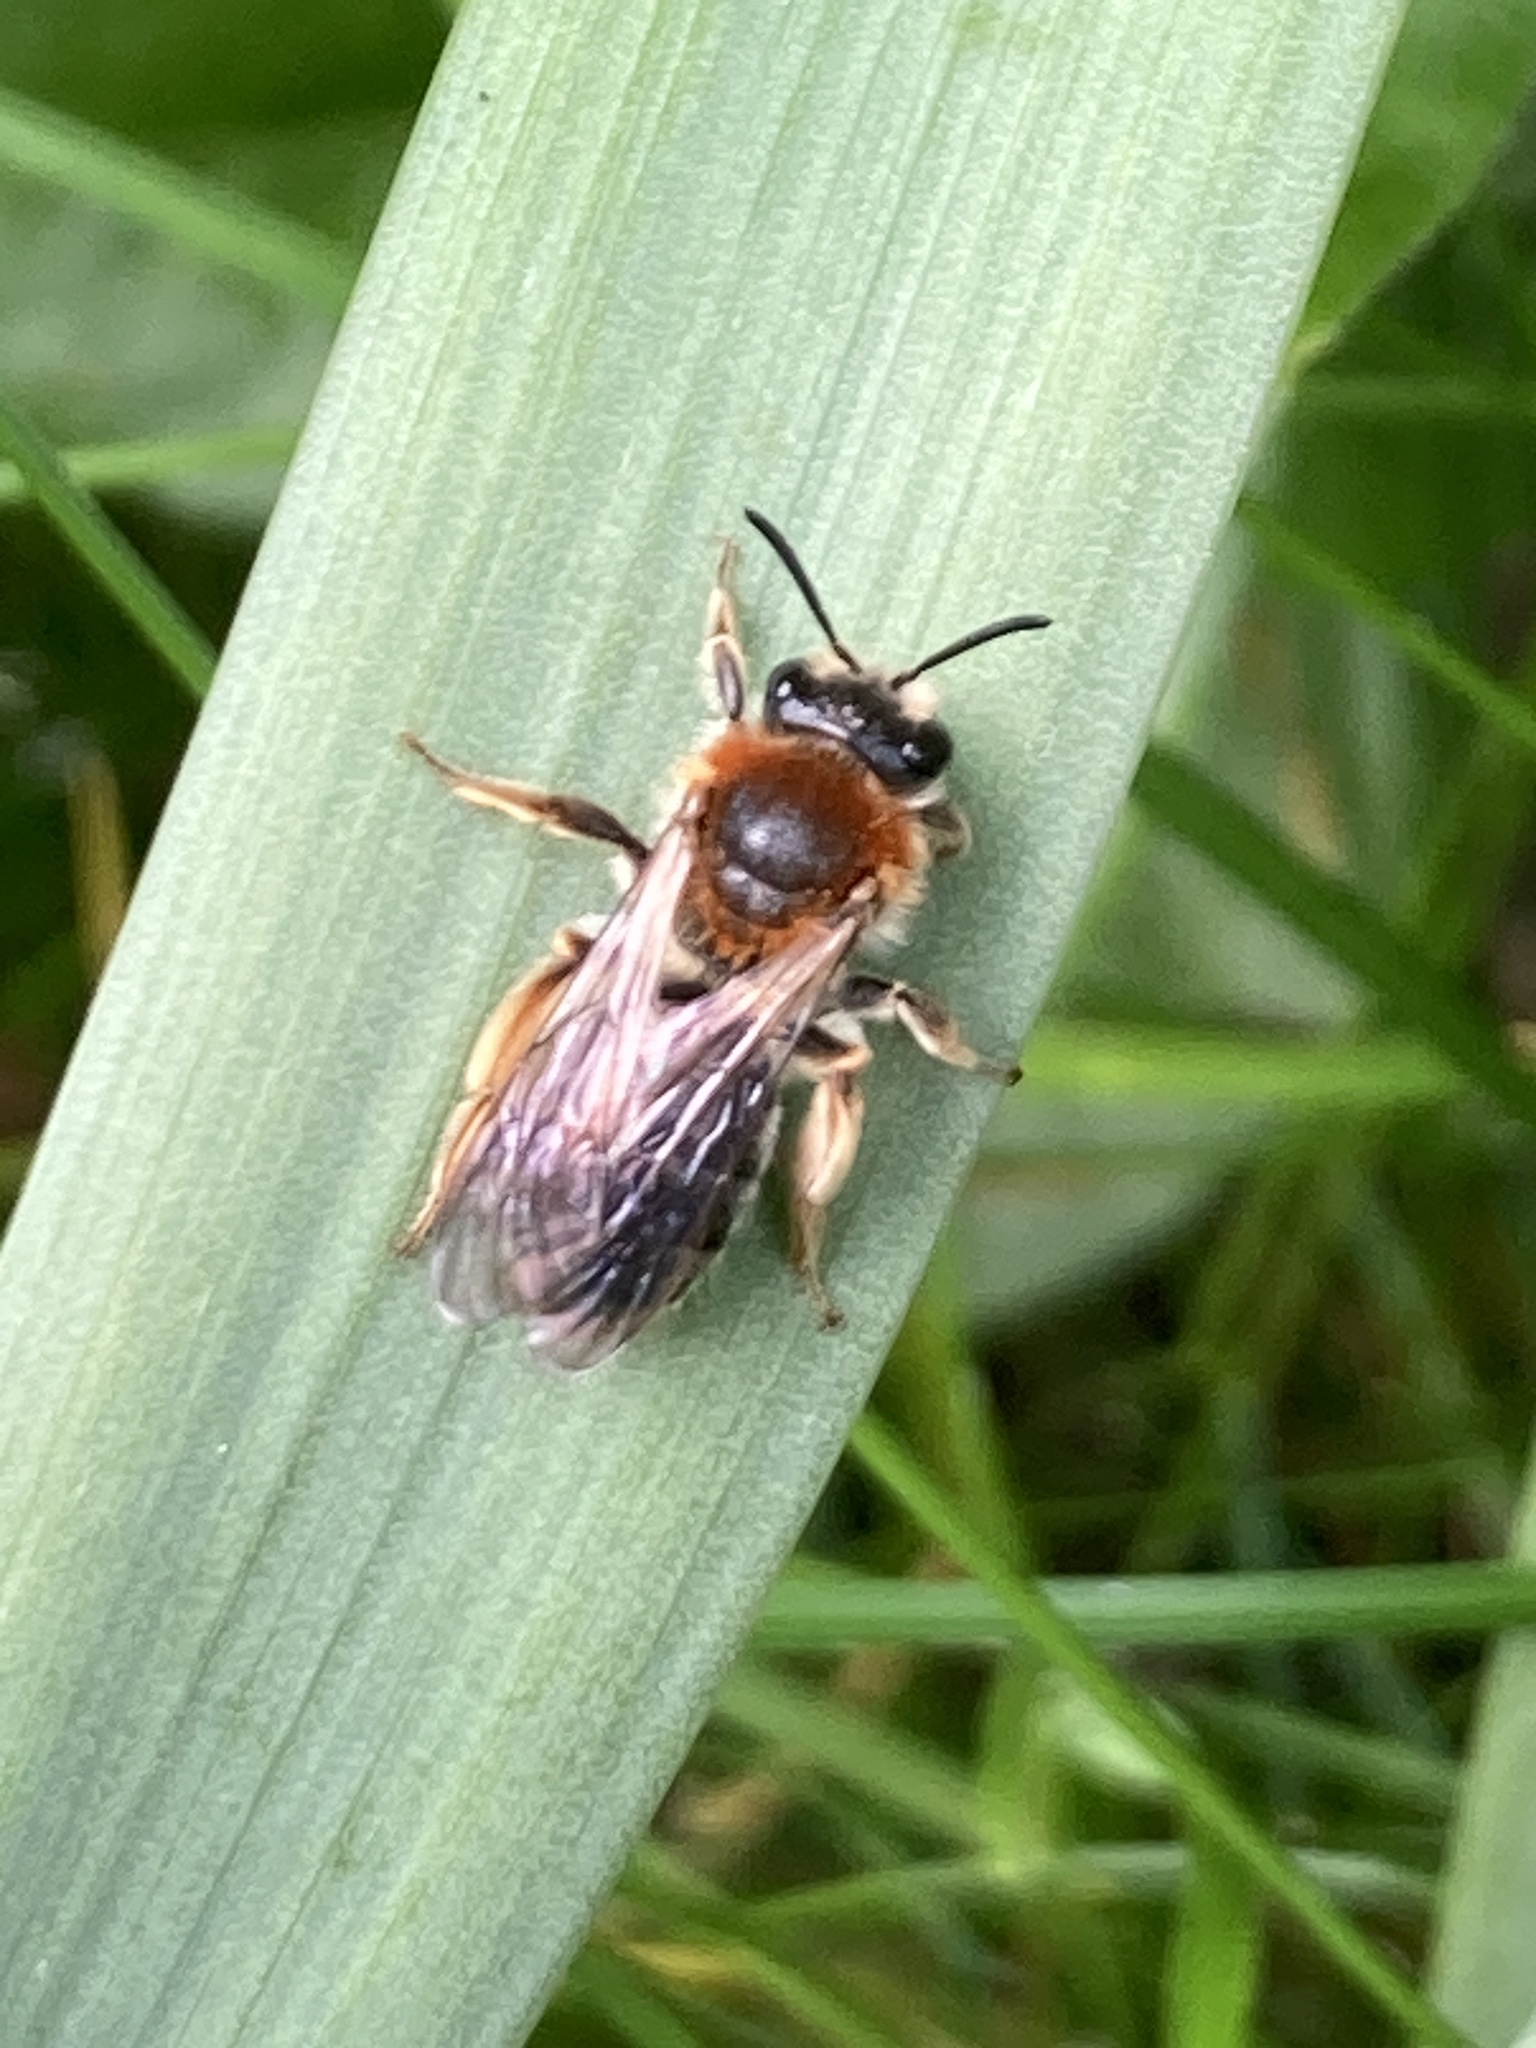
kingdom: Animalia
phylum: Arthropoda
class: Insecta
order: Hymenoptera
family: Andrenidae
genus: Andrena
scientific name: Andrena haemorrhoa
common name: Early mining bee
